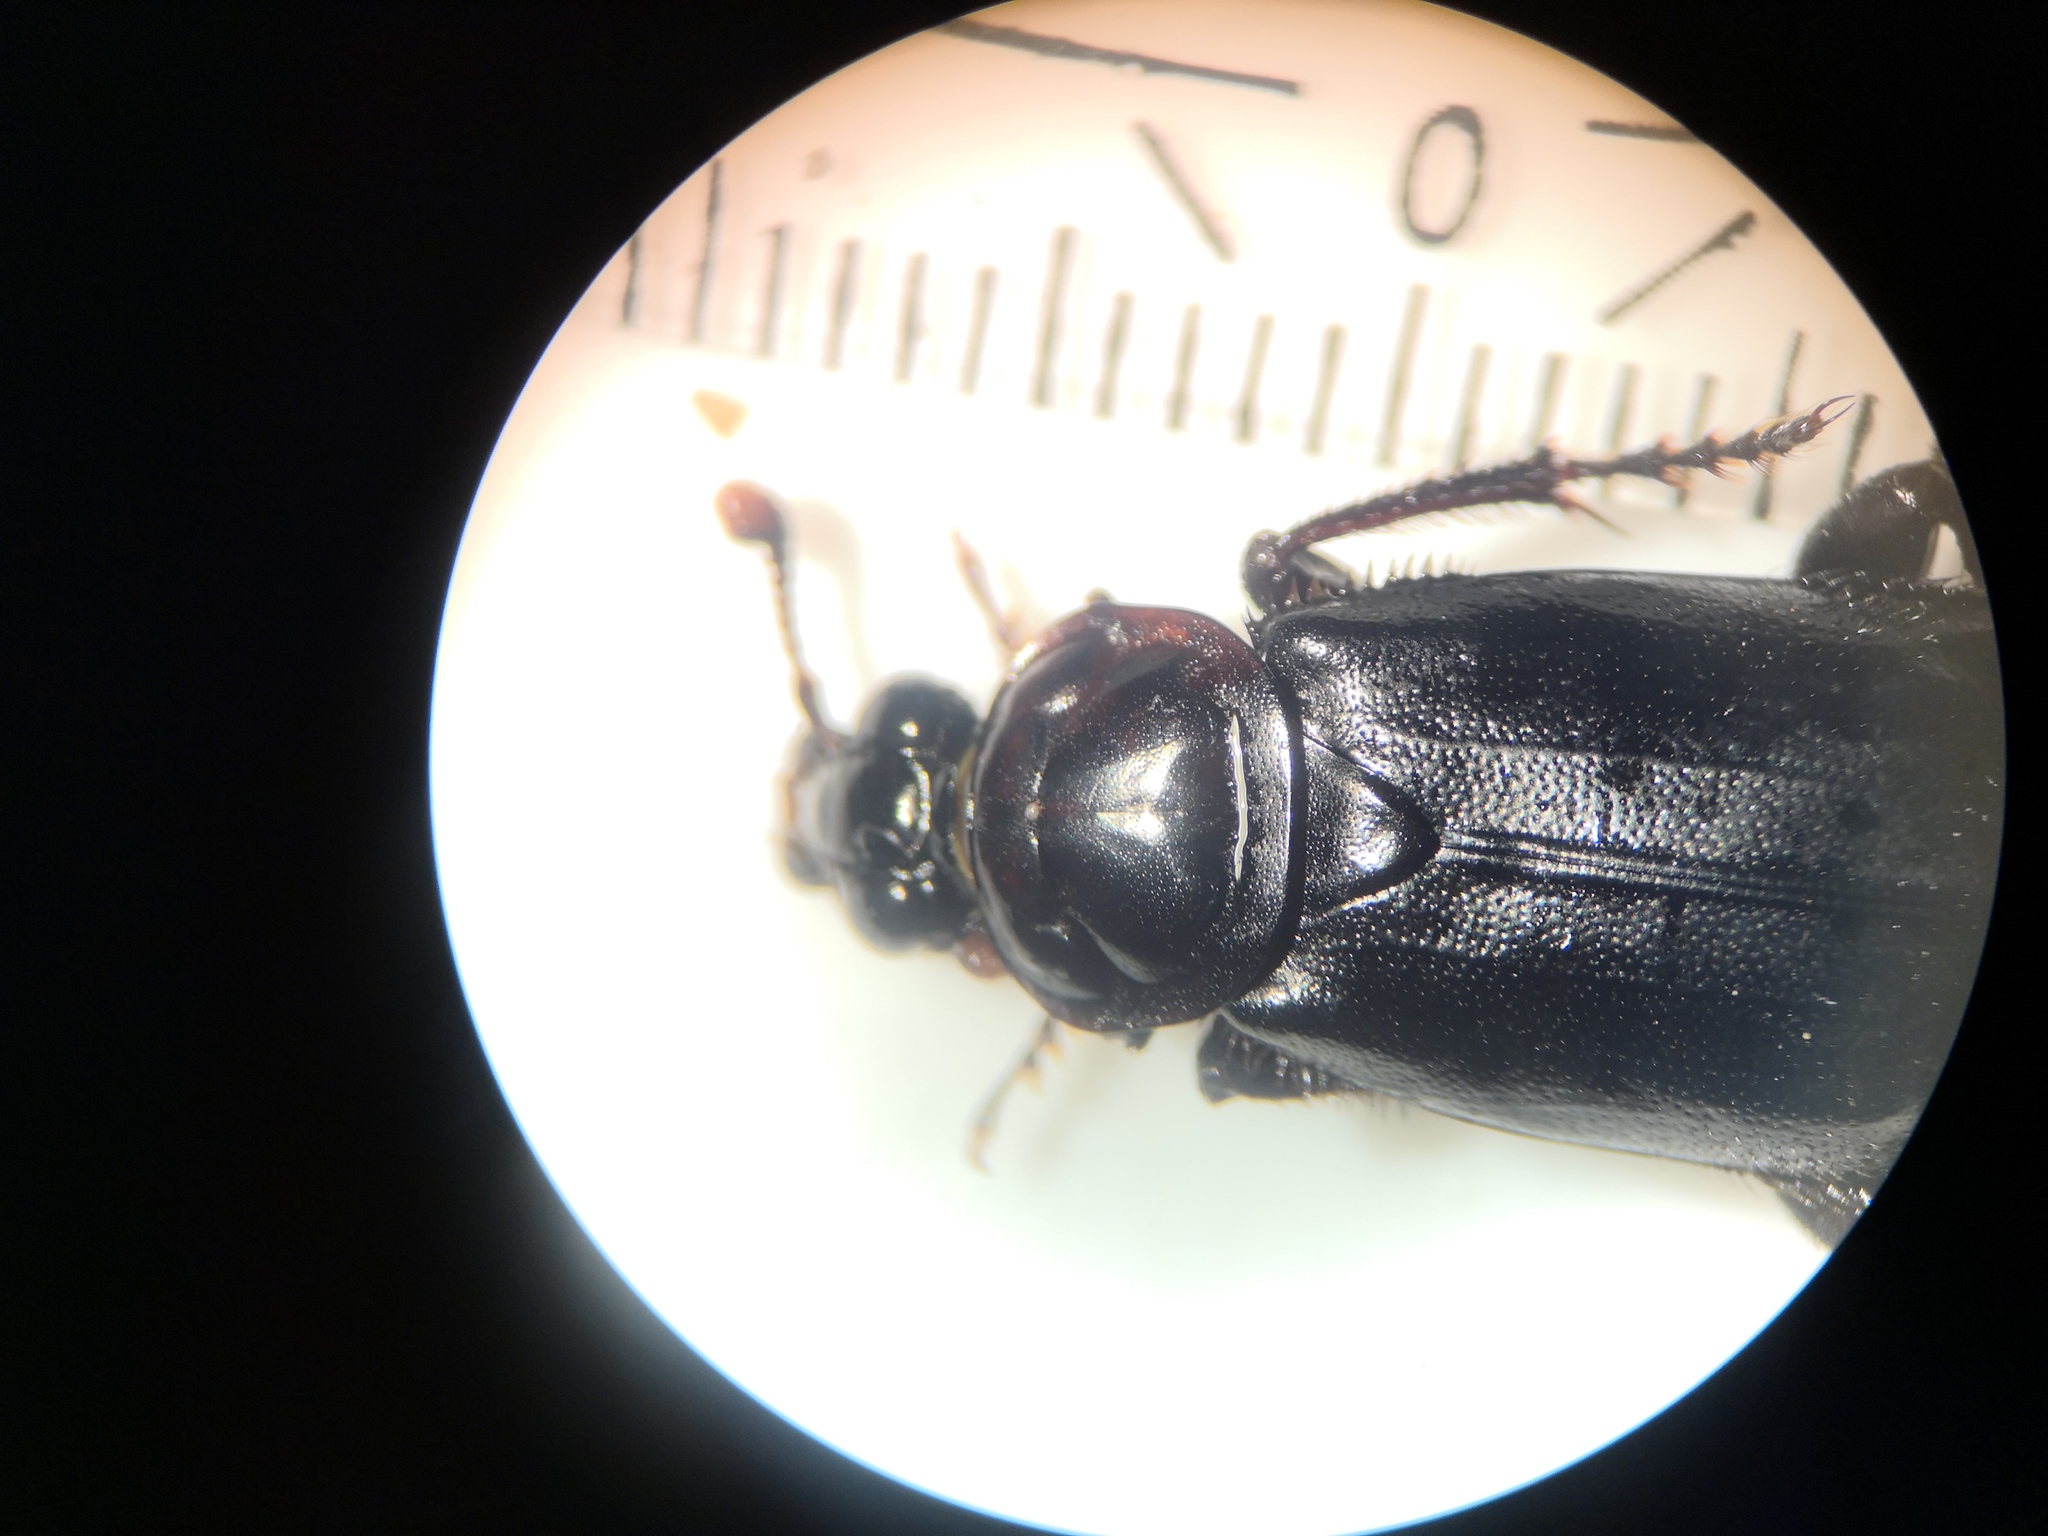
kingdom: Animalia
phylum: Arthropoda
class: Insecta
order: Coleoptera
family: Staphylinidae
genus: Nicrophorus
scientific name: Nicrophorus humator
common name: Black sexton beetle
